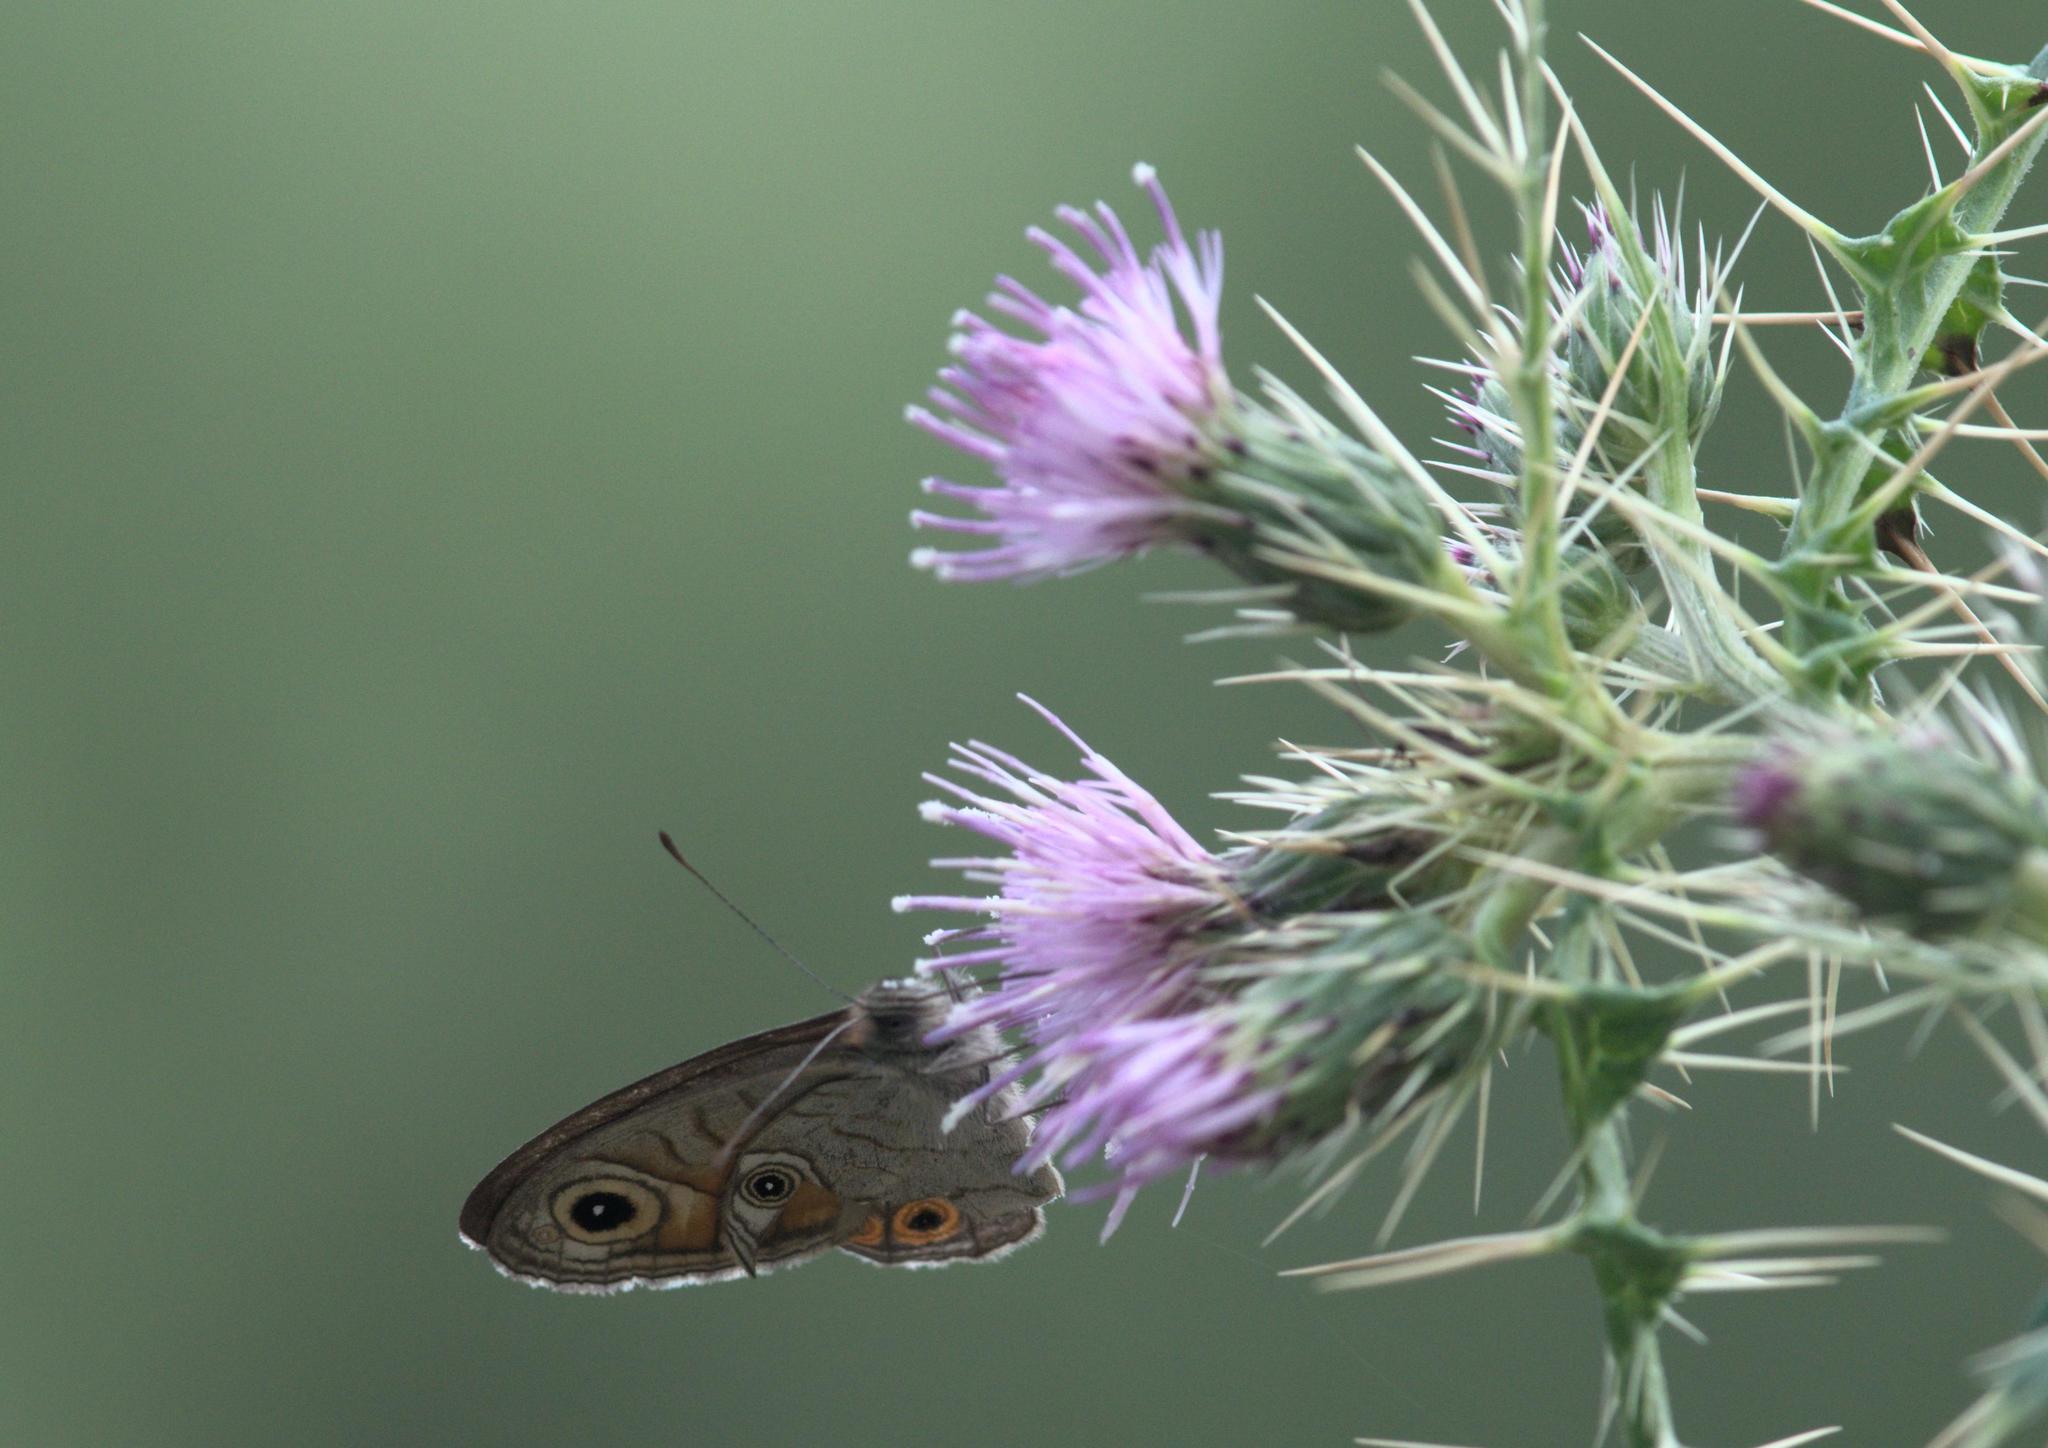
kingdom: Animalia
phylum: Arthropoda
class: Insecta
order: Lepidoptera
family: Nymphalidae
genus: Pararge
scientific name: Pararge Lasiommata schakra
